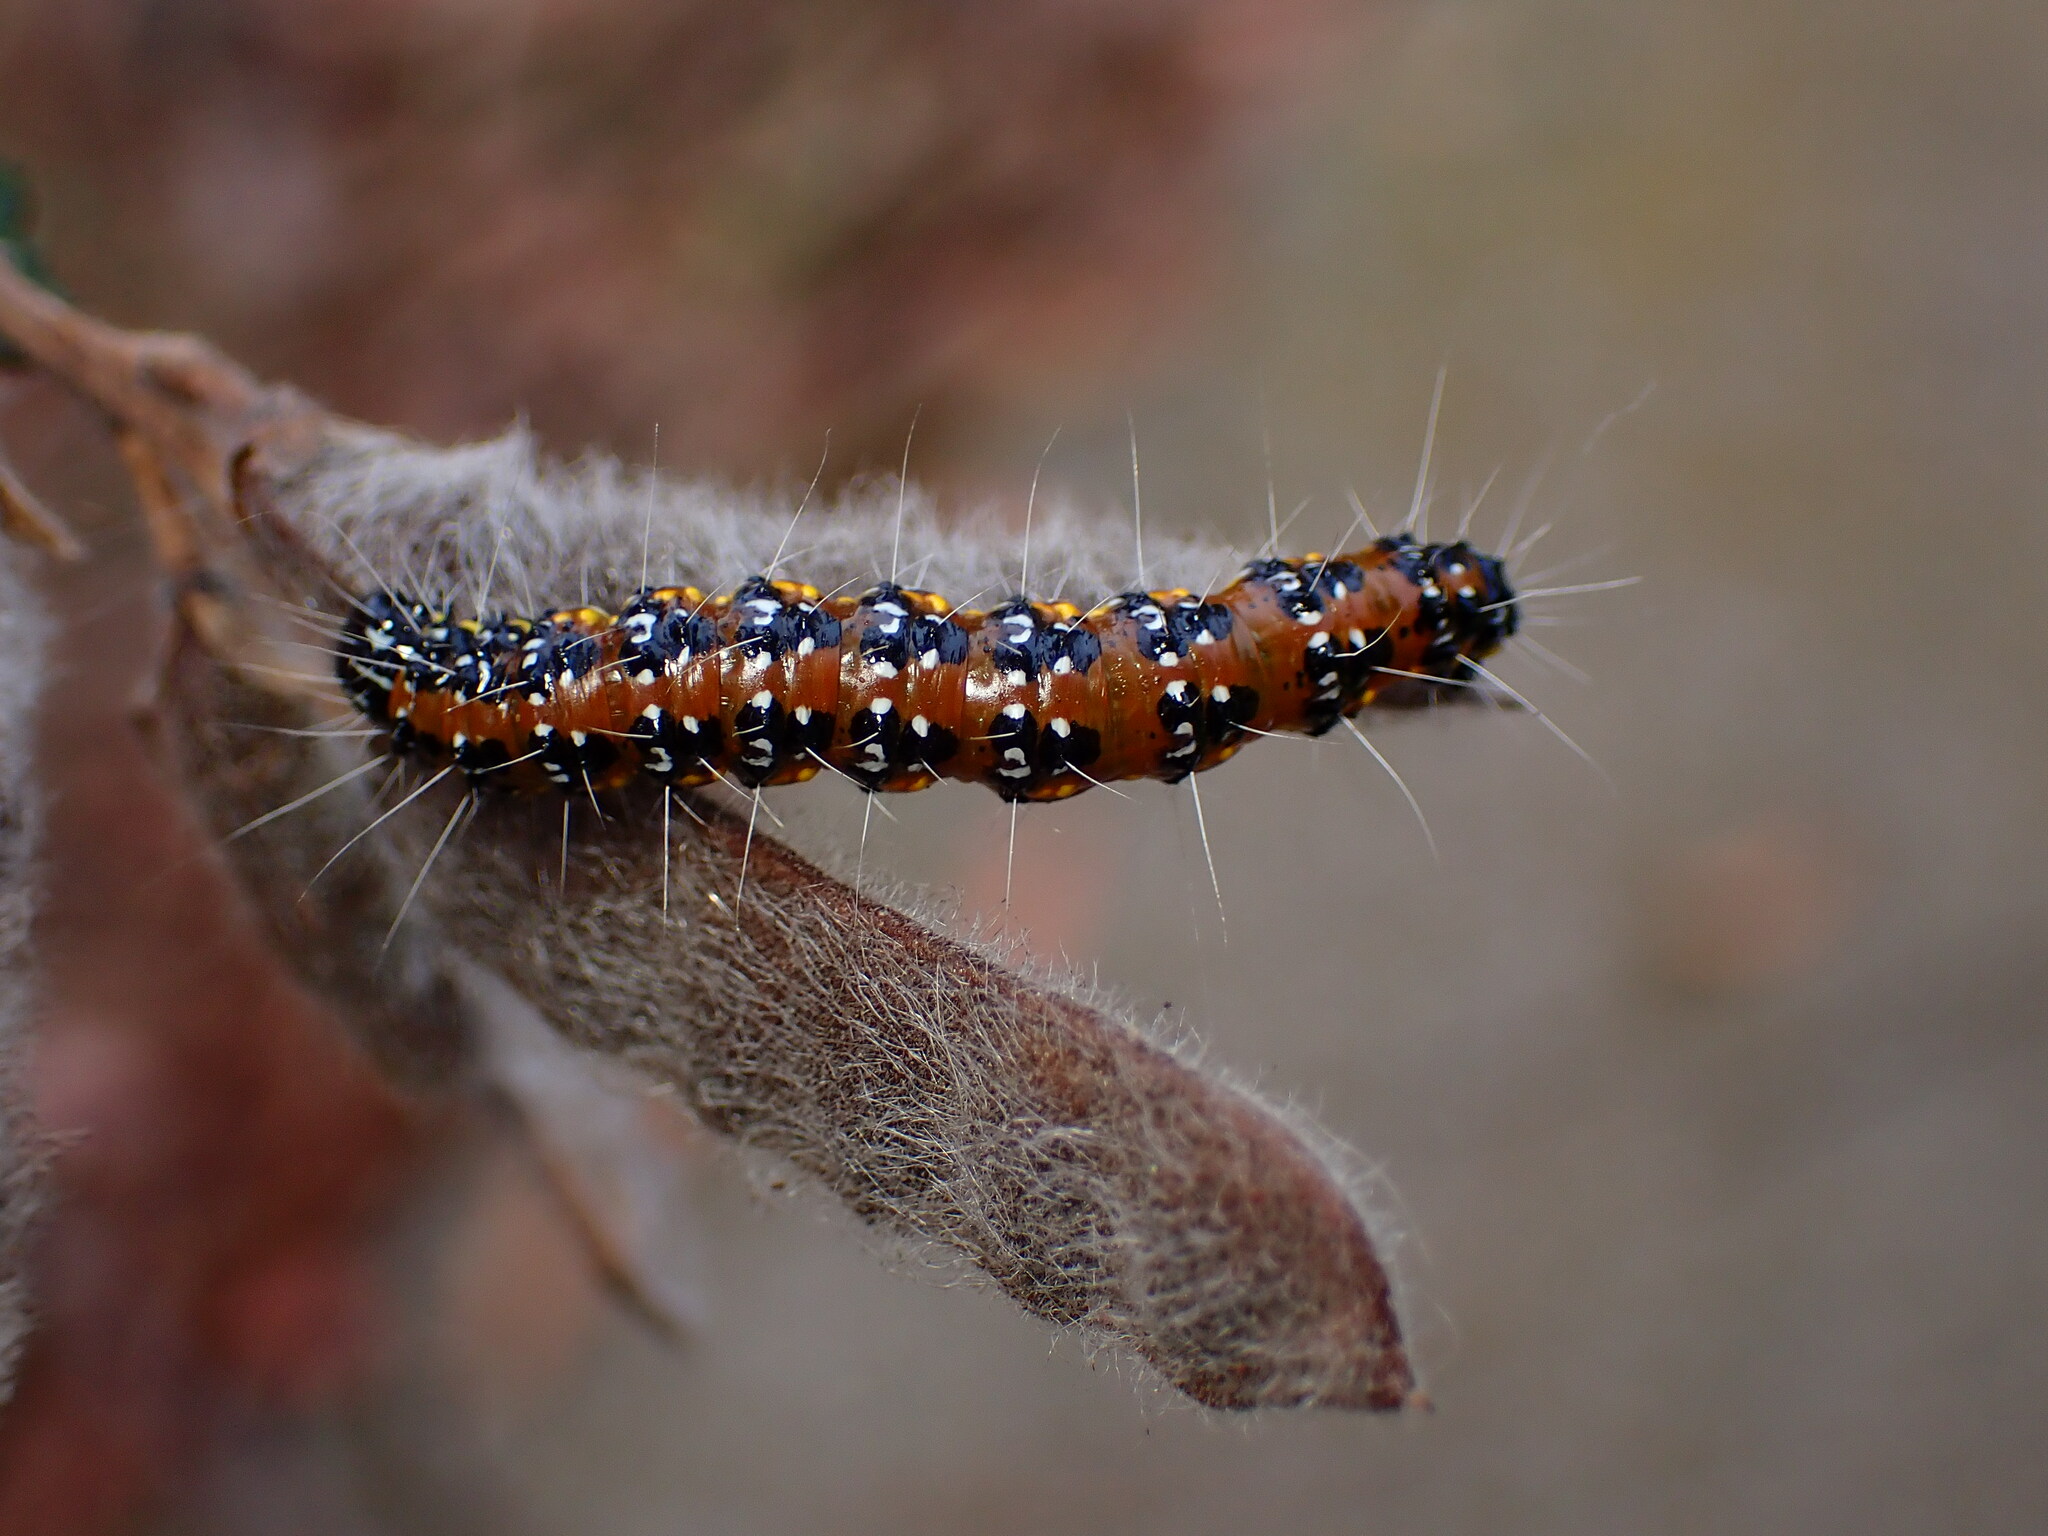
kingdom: Animalia
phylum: Arthropoda
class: Insecta
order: Lepidoptera
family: Crambidae
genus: Uresiphita
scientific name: Uresiphita reversalis
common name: Genista broom moth
